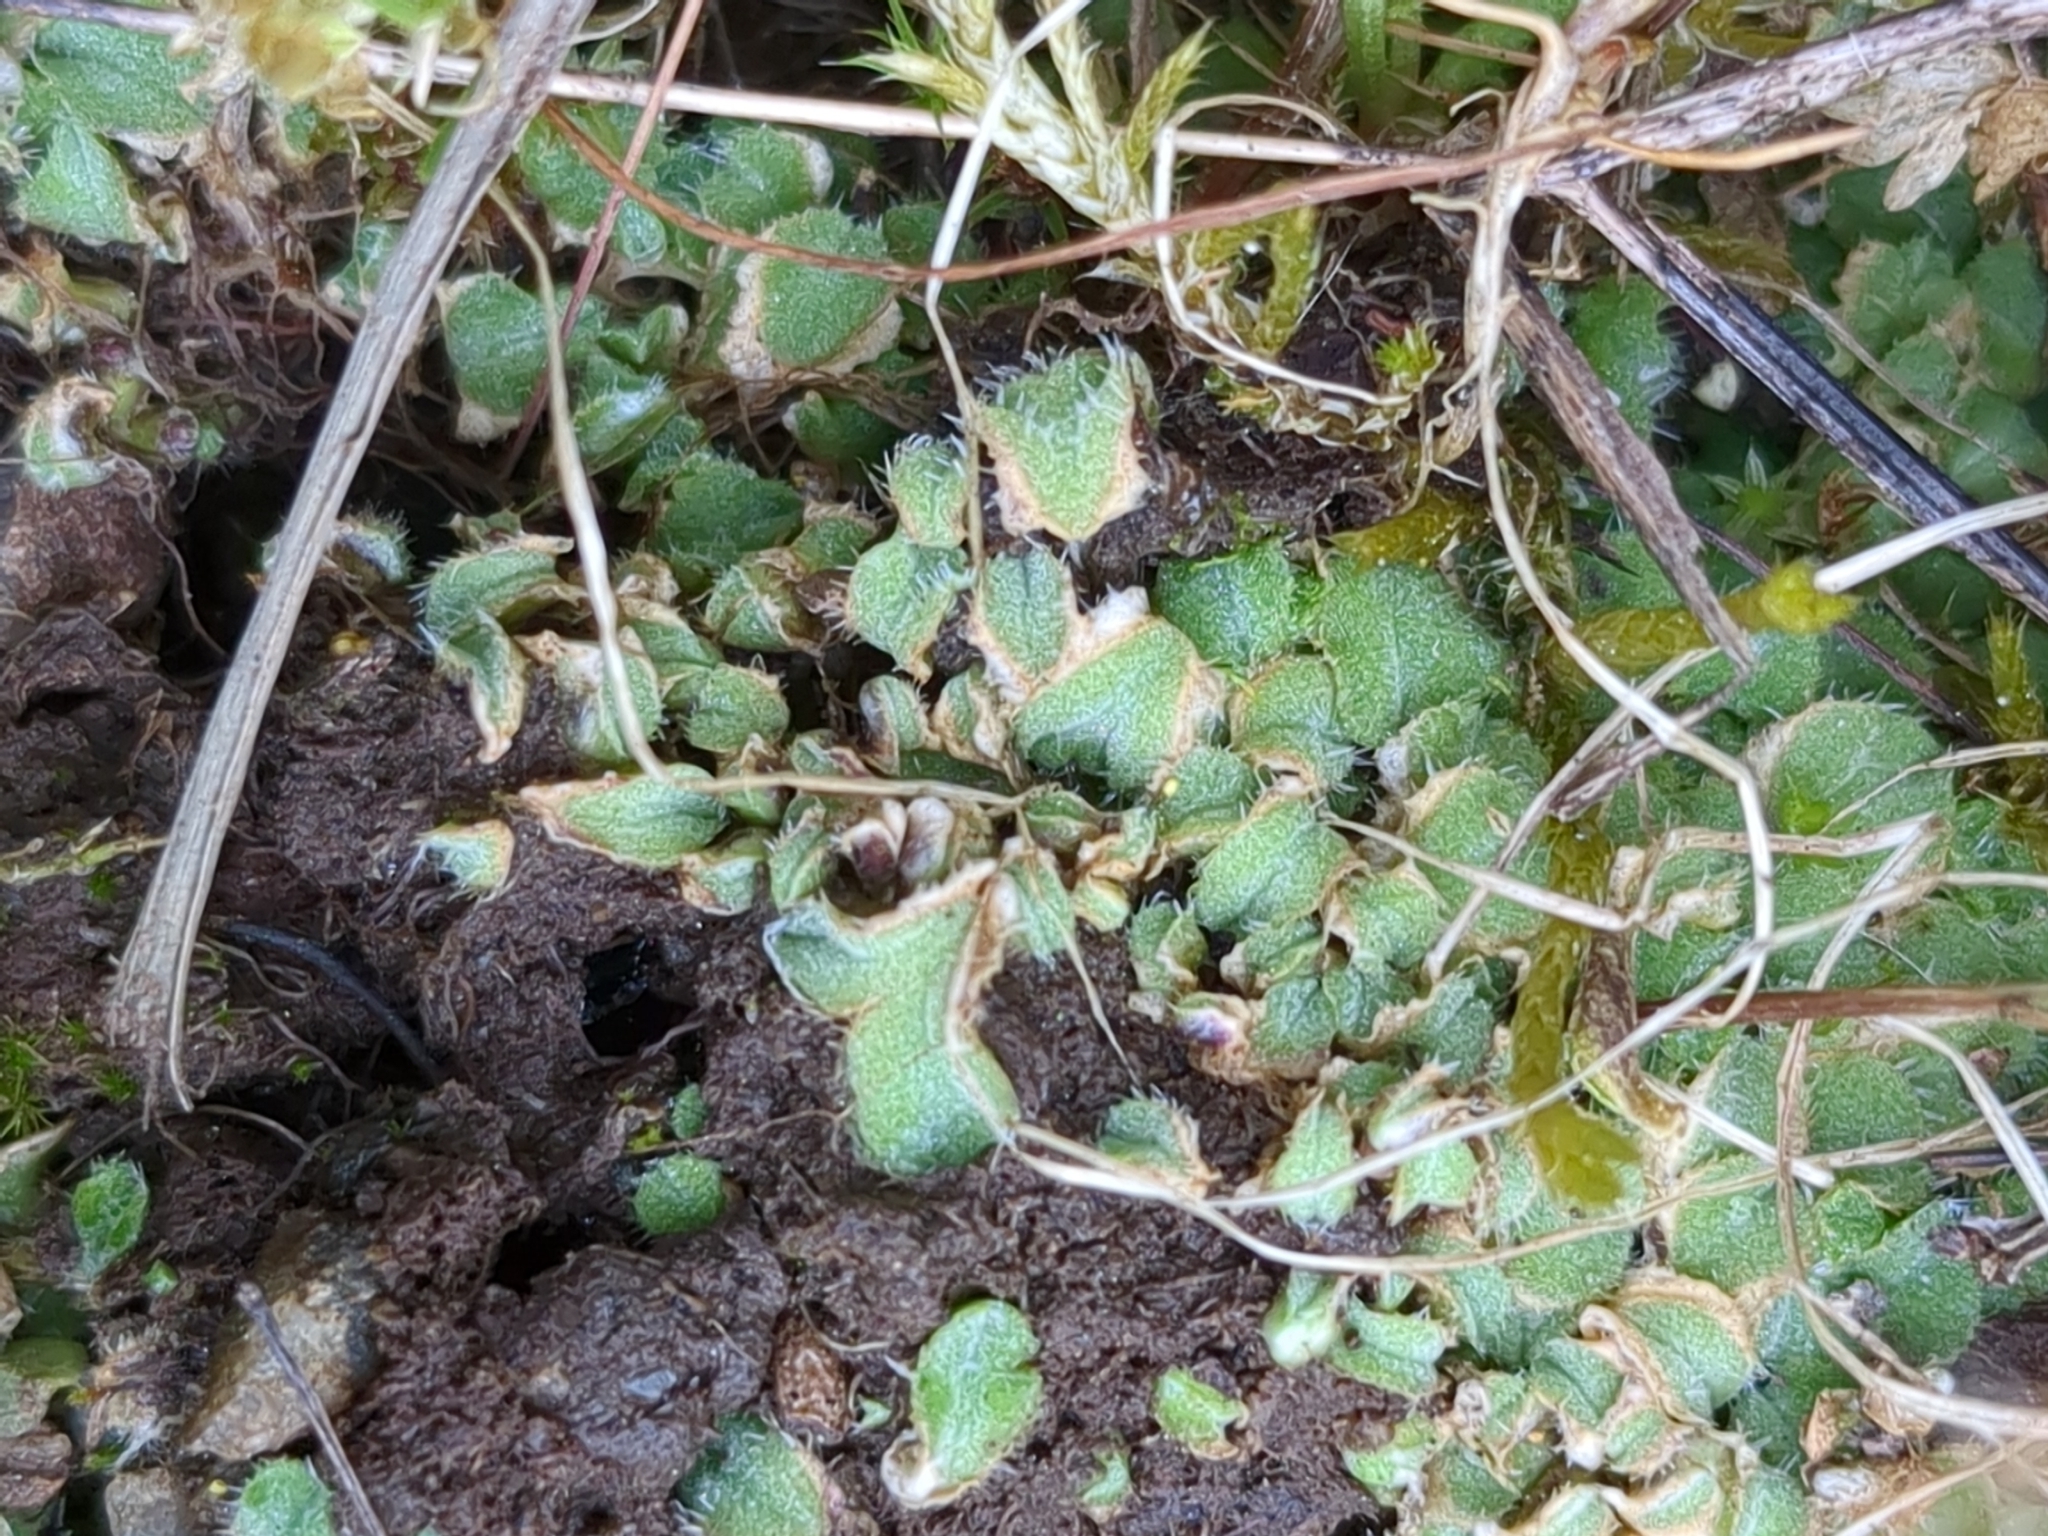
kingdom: Plantae
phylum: Marchantiophyta
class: Marchantiopsida
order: Marchantiales
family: Ricciaceae
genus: Riccia
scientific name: Riccia ciliifera
